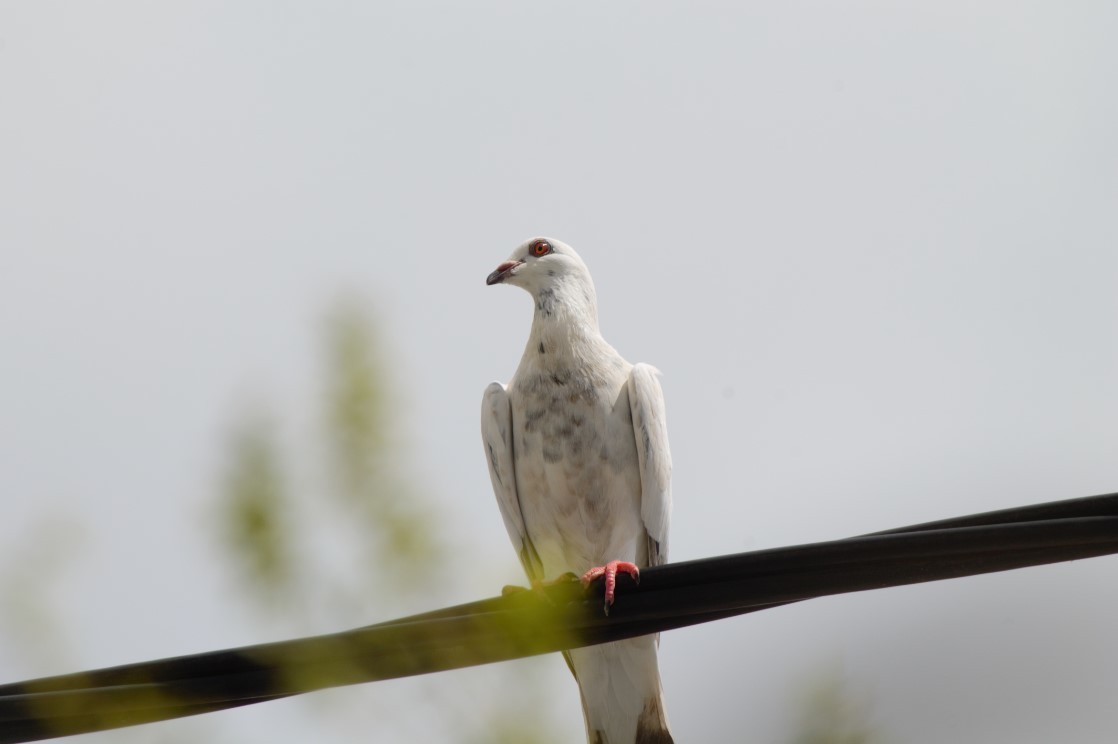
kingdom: Animalia
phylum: Chordata
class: Aves
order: Columbiformes
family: Columbidae
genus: Columba
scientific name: Columba livia
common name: Rock pigeon
